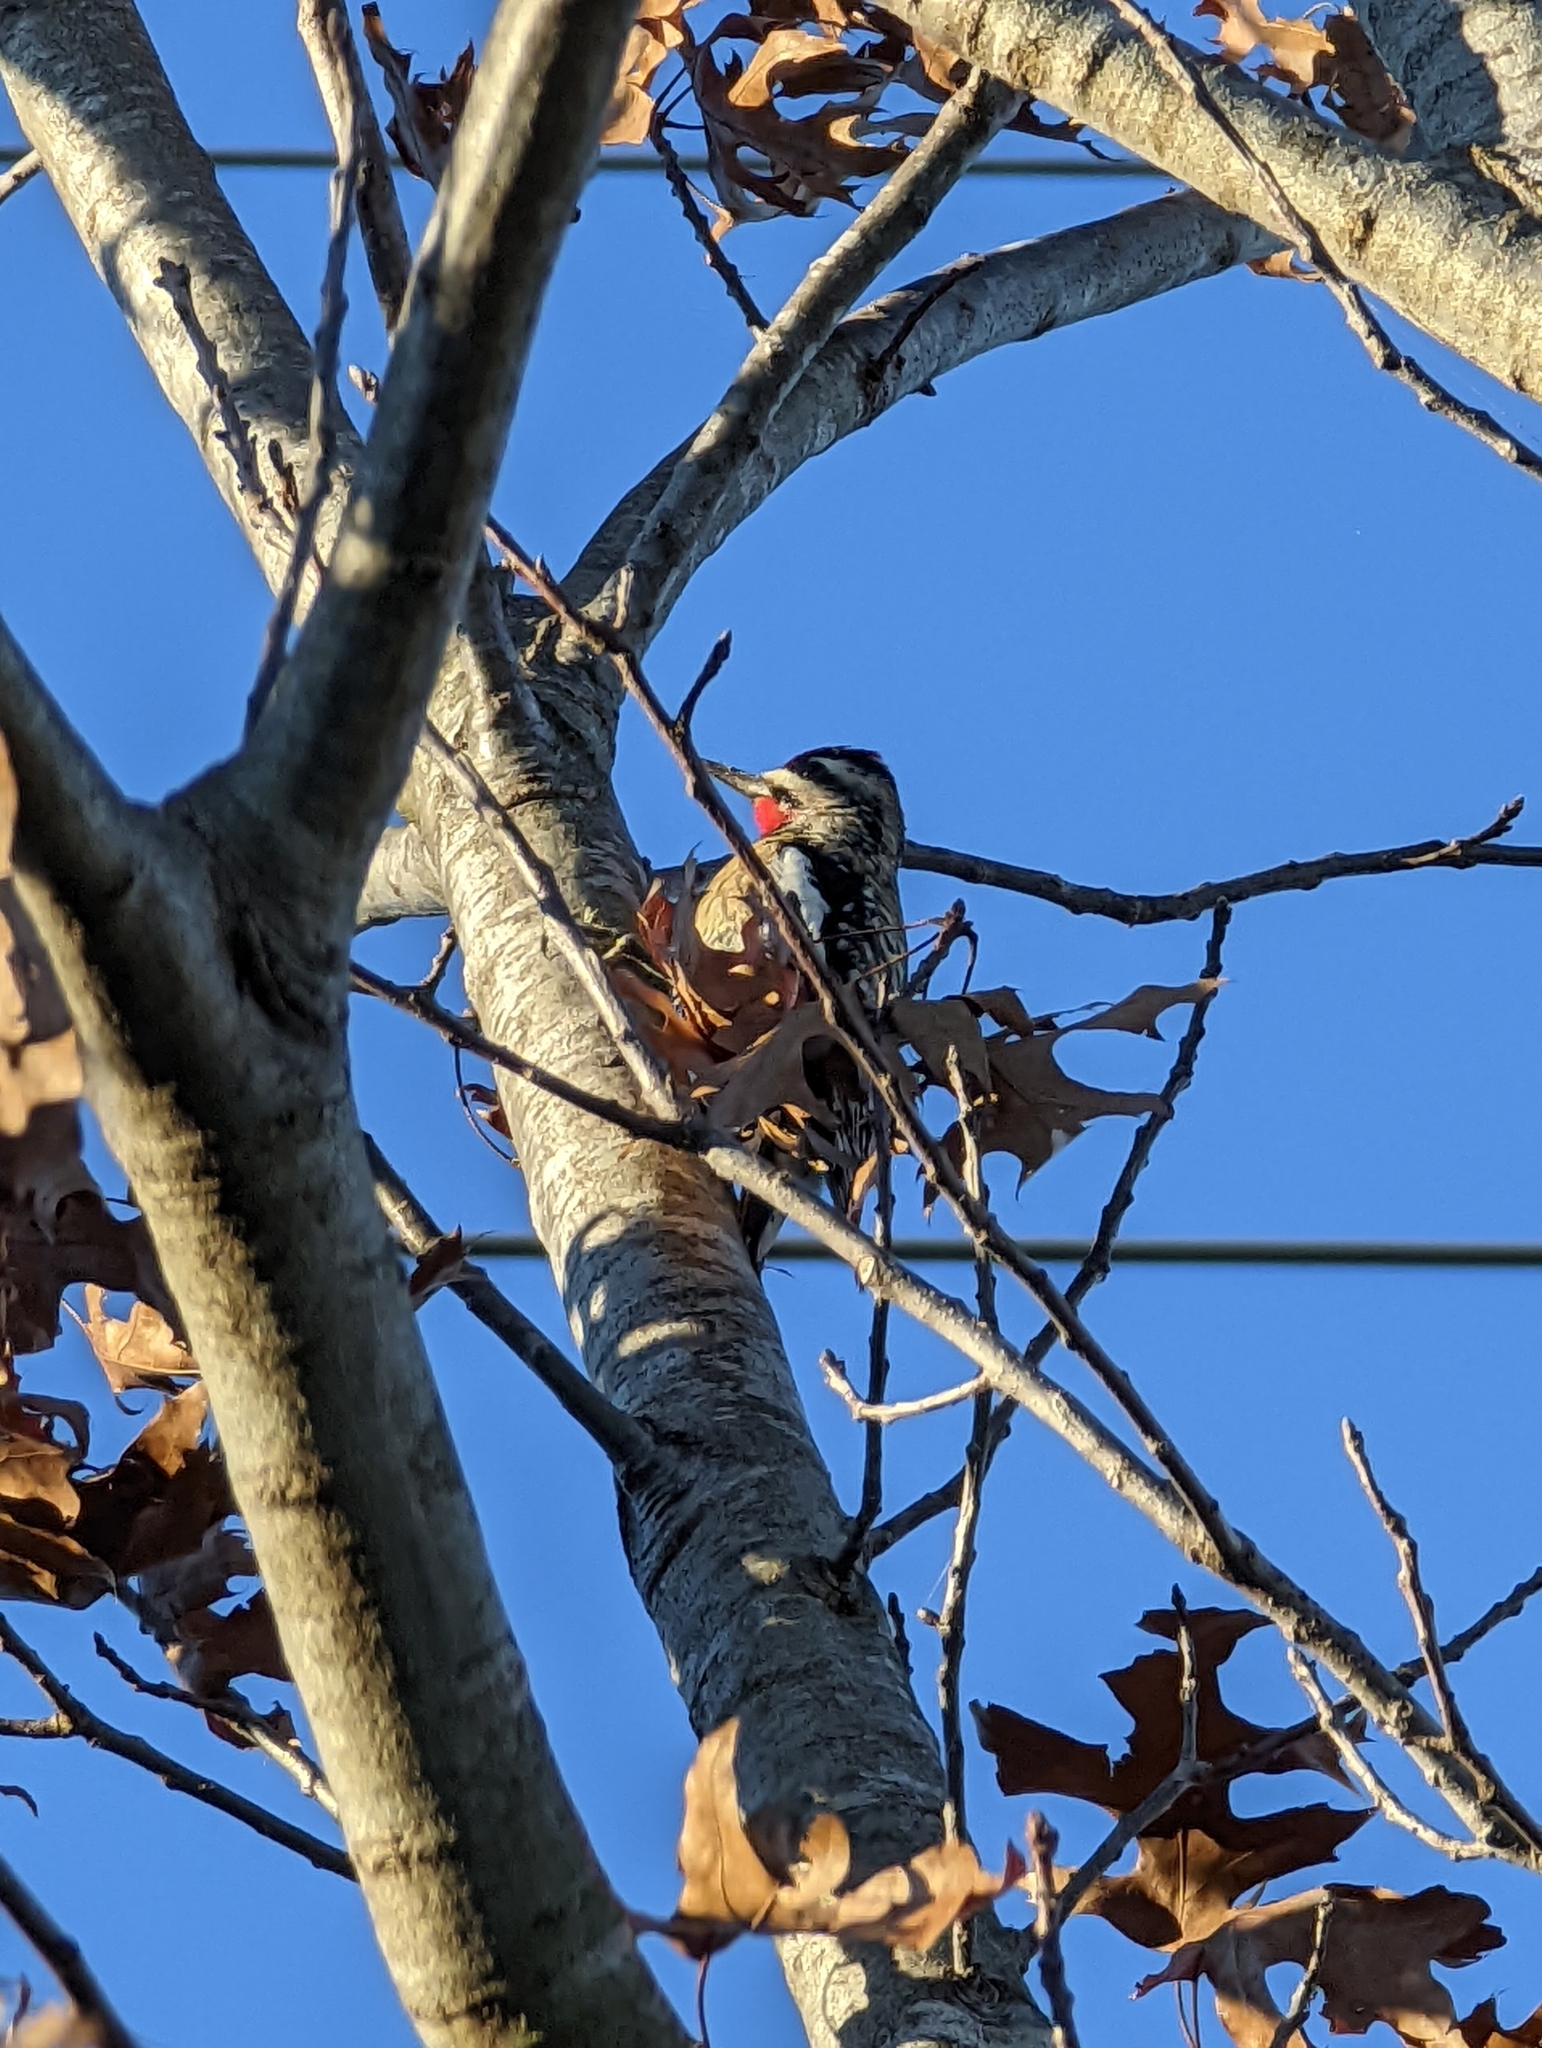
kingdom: Animalia
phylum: Chordata
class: Aves
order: Piciformes
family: Picidae
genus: Sphyrapicus
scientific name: Sphyrapicus varius
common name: Yellow-bellied sapsucker
